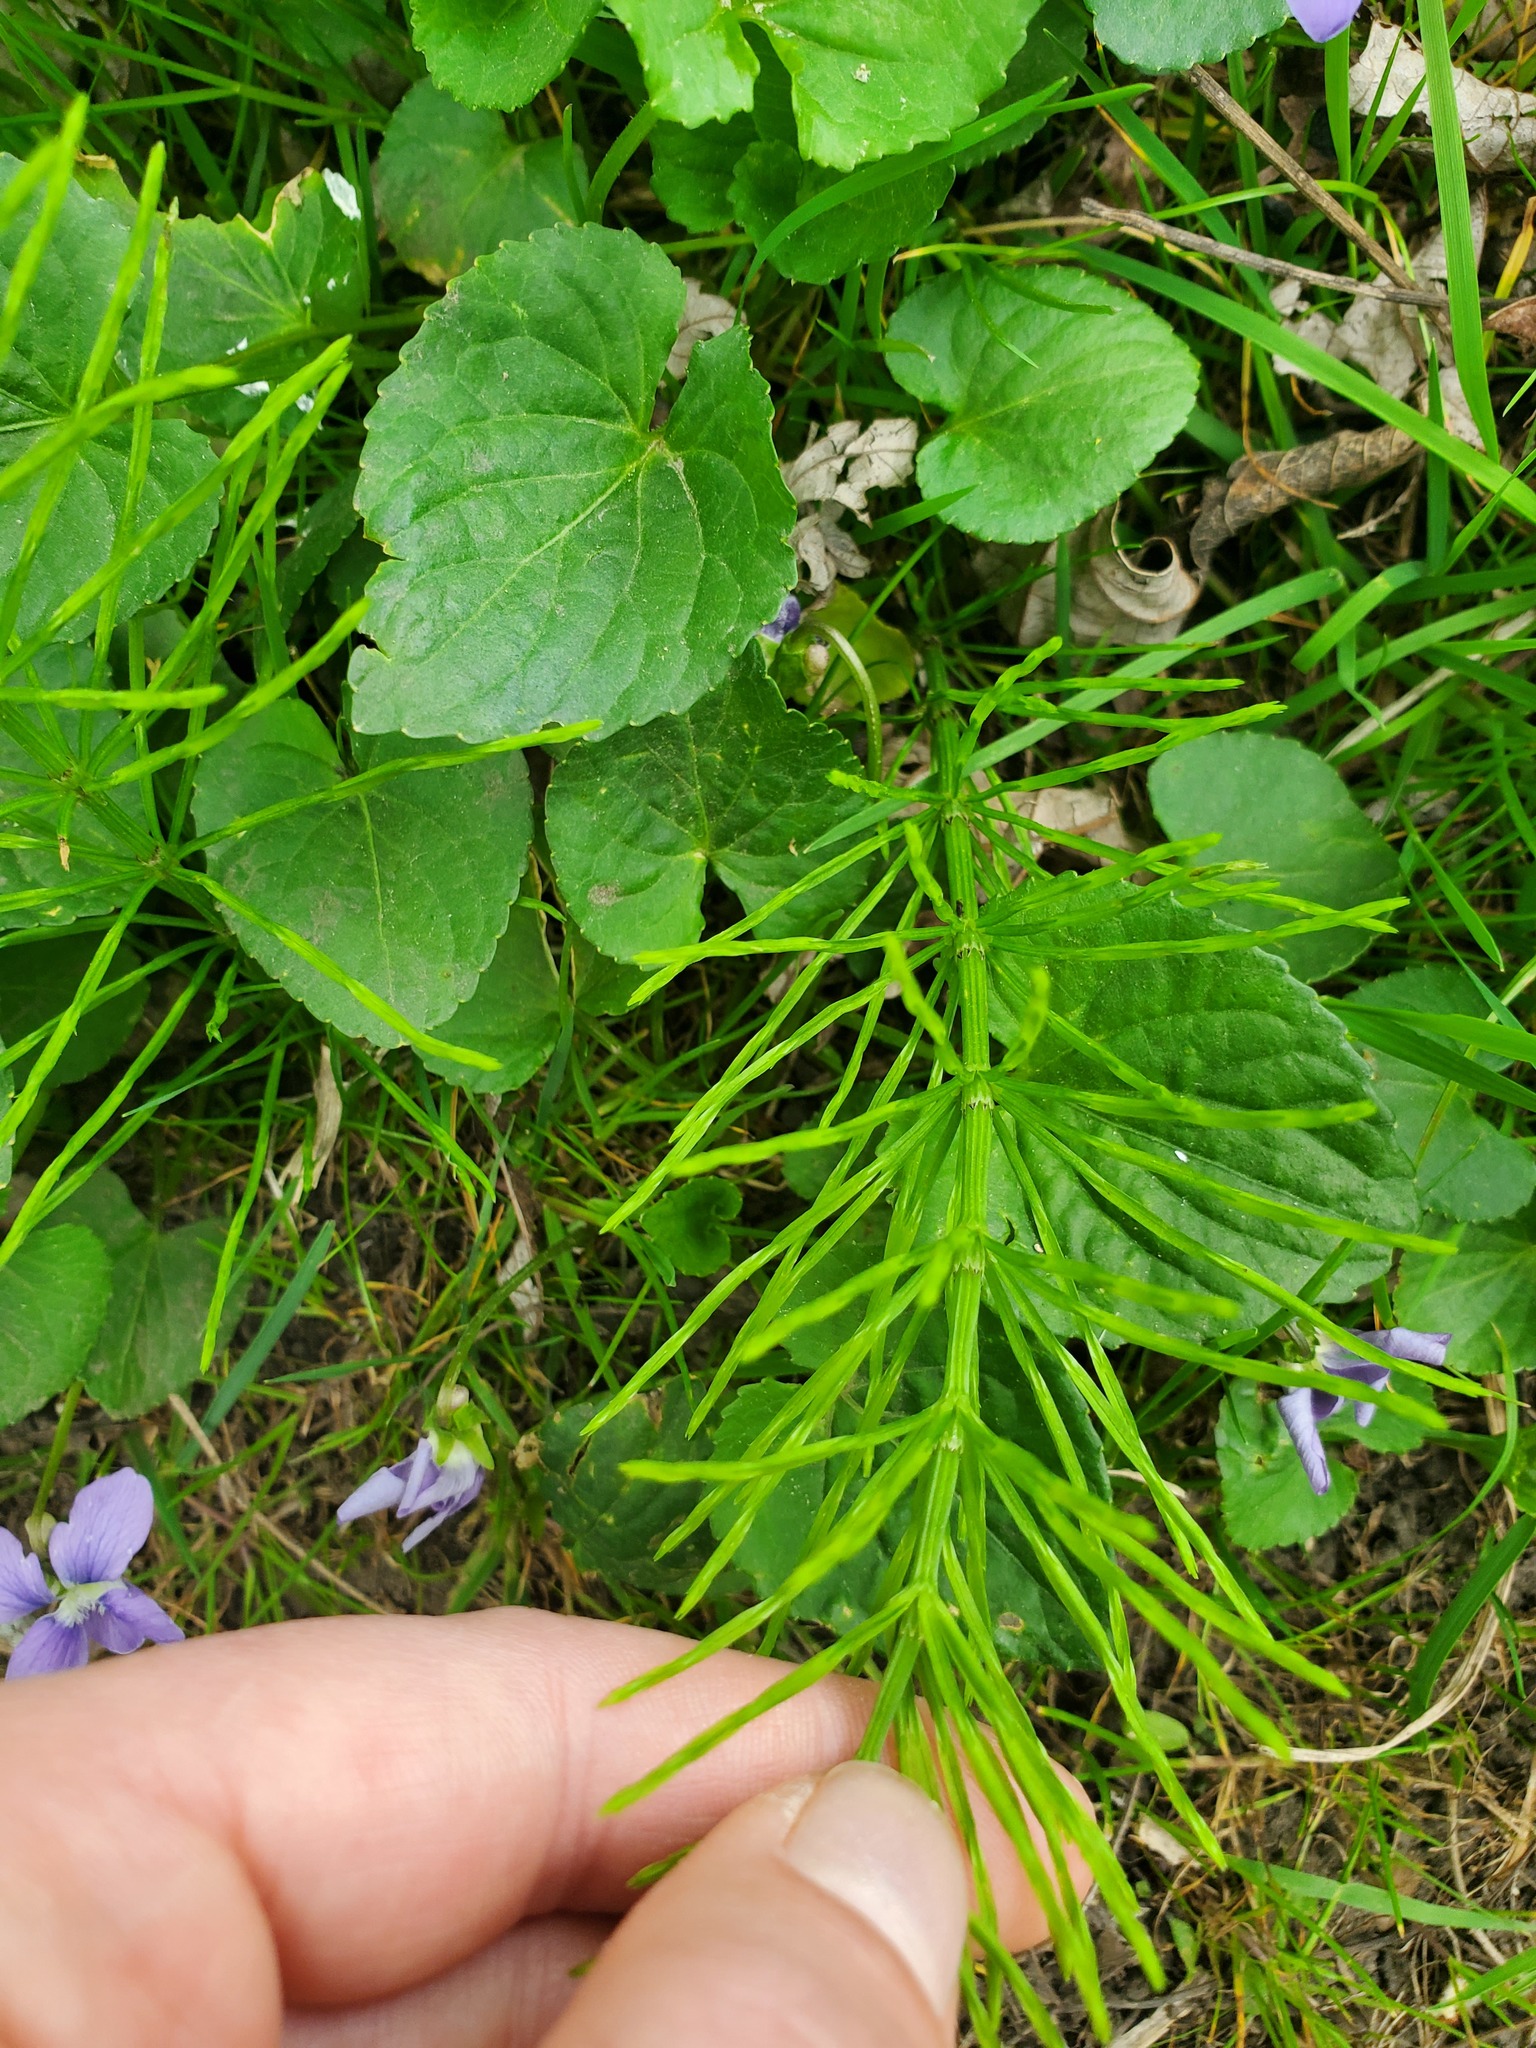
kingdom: Plantae
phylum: Tracheophyta
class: Polypodiopsida
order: Equisetales
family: Equisetaceae
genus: Equisetum
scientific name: Equisetum arvense
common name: Field horsetail
